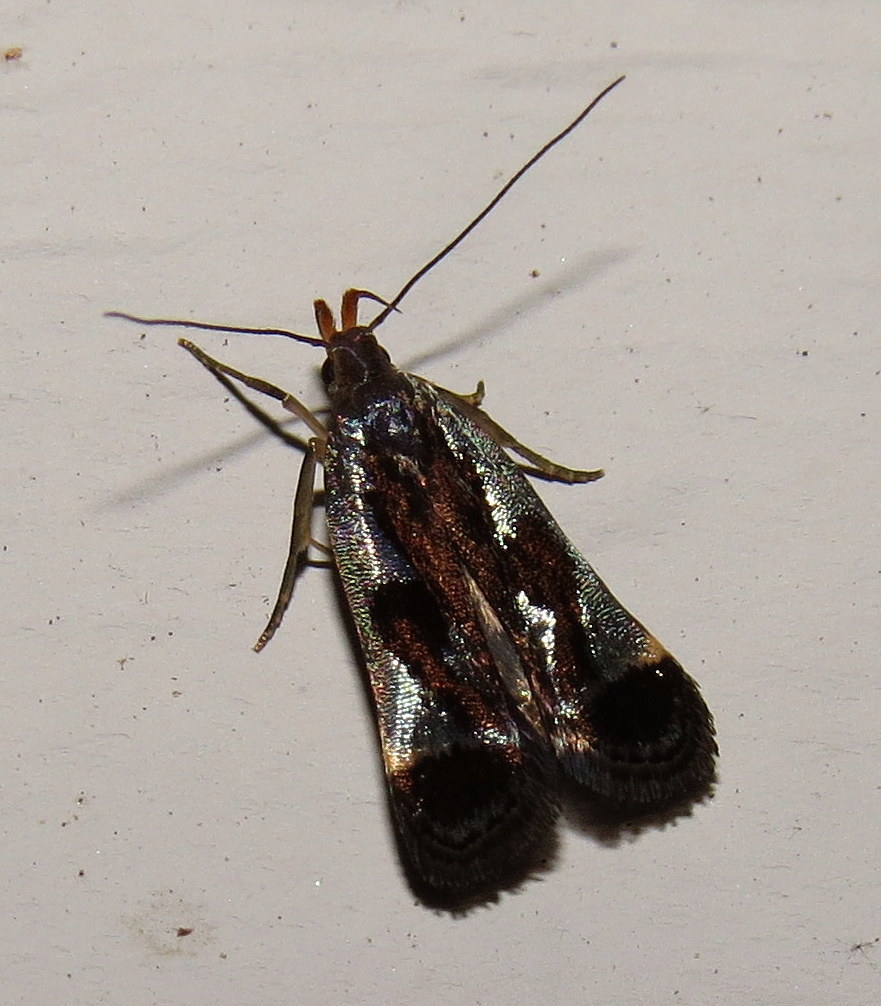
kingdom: Animalia
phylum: Arthropoda
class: Insecta
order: Lepidoptera
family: Gelechiidae
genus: Dichomeris
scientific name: Dichomeris ochripalpella
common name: Shining dichomeris moth
